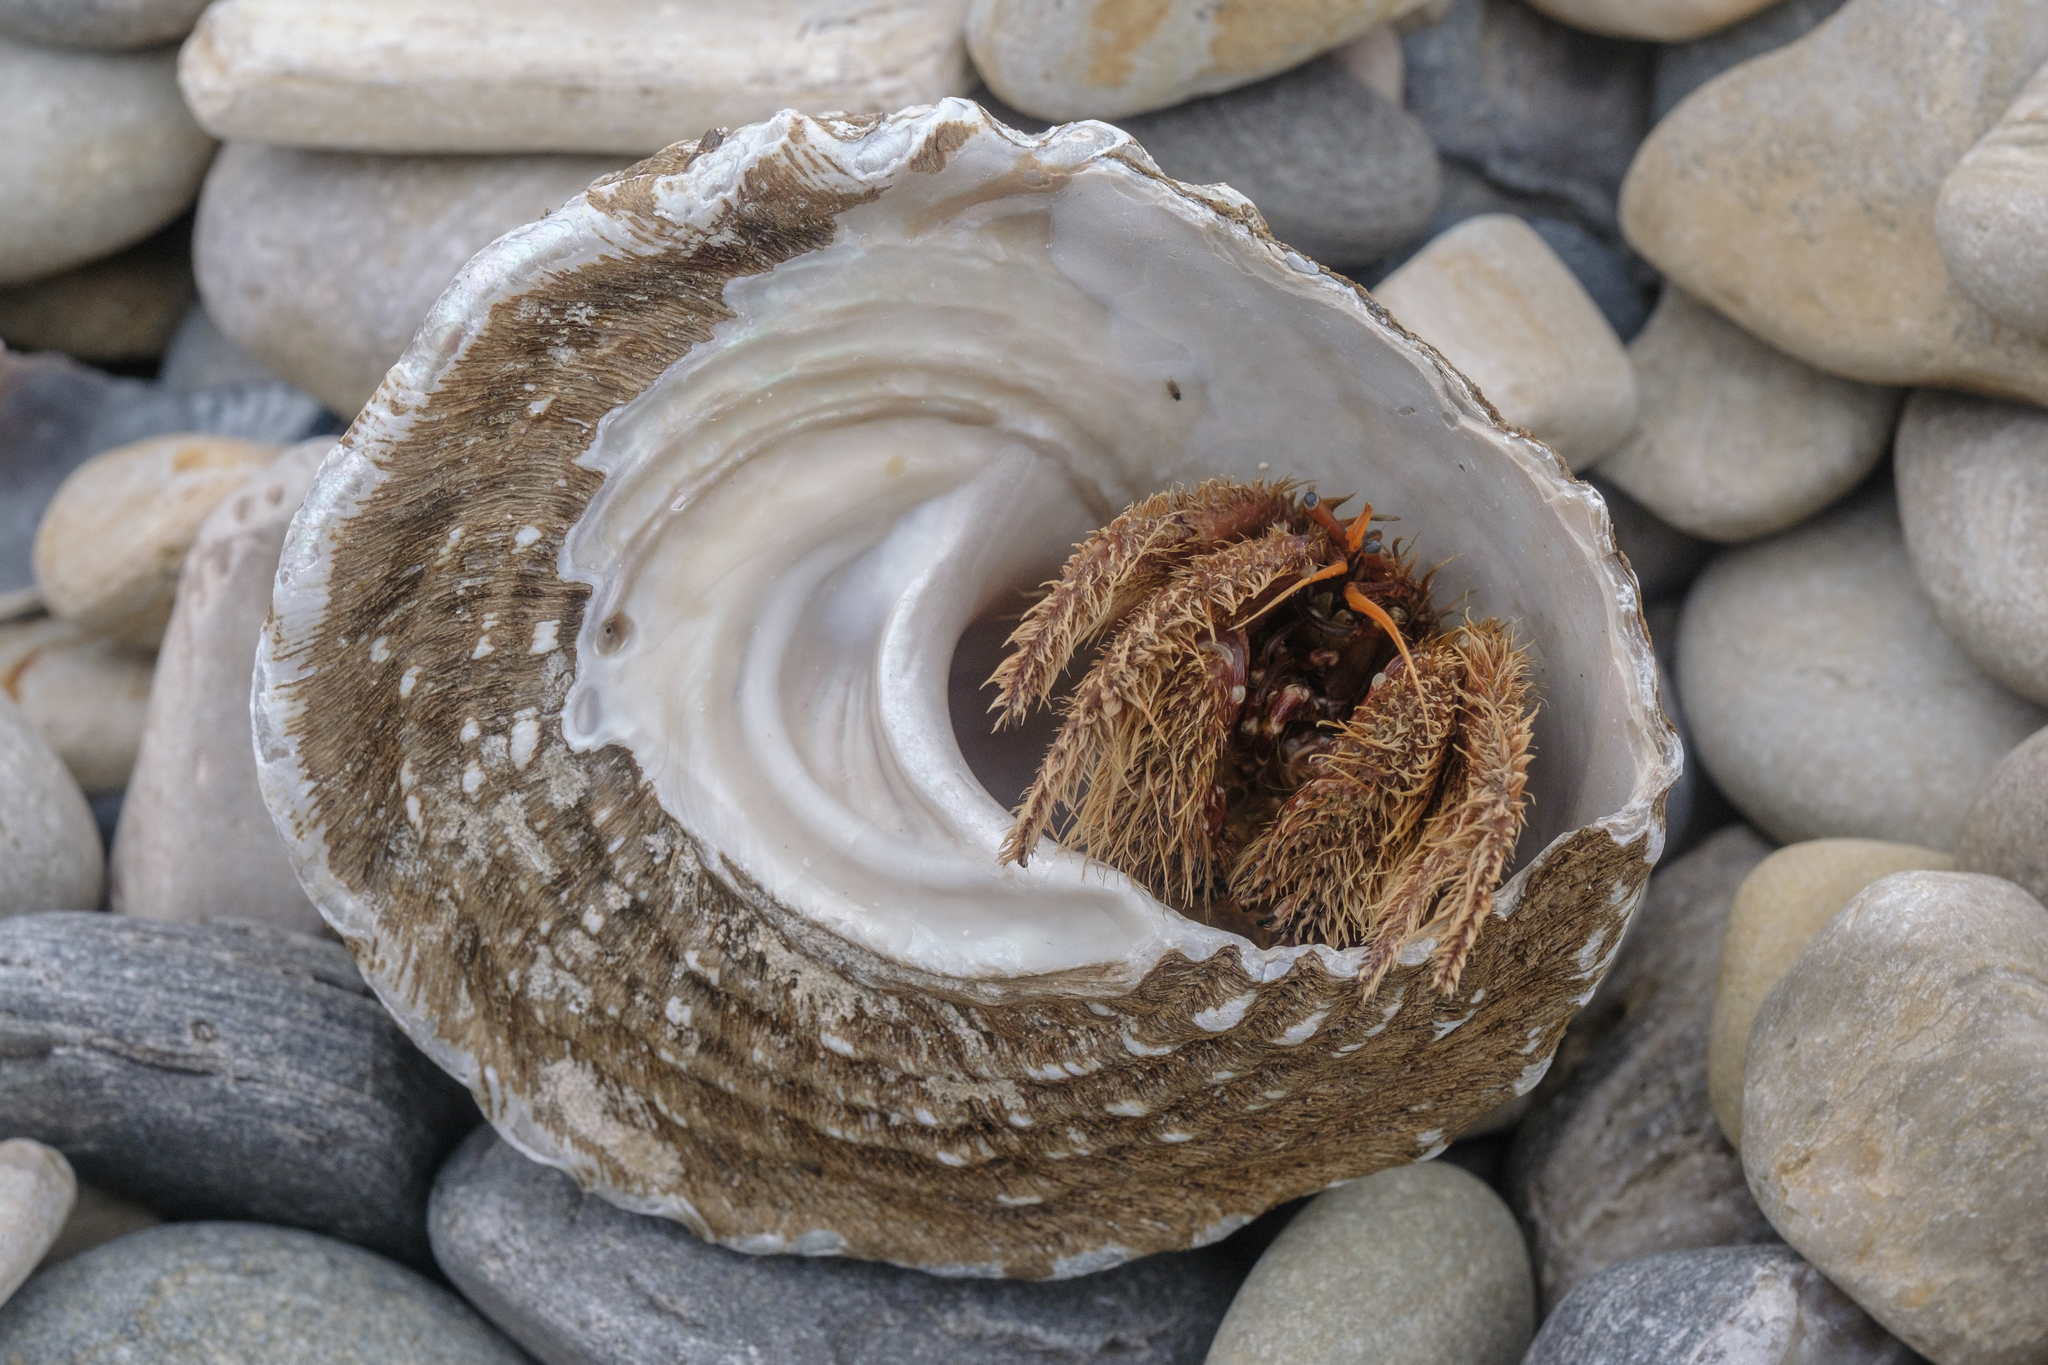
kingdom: Animalia
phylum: Arthropoda
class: Malacostraca
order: Decapoda
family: Diogenidae
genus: Paguristes
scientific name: Paguristes ulreyi
